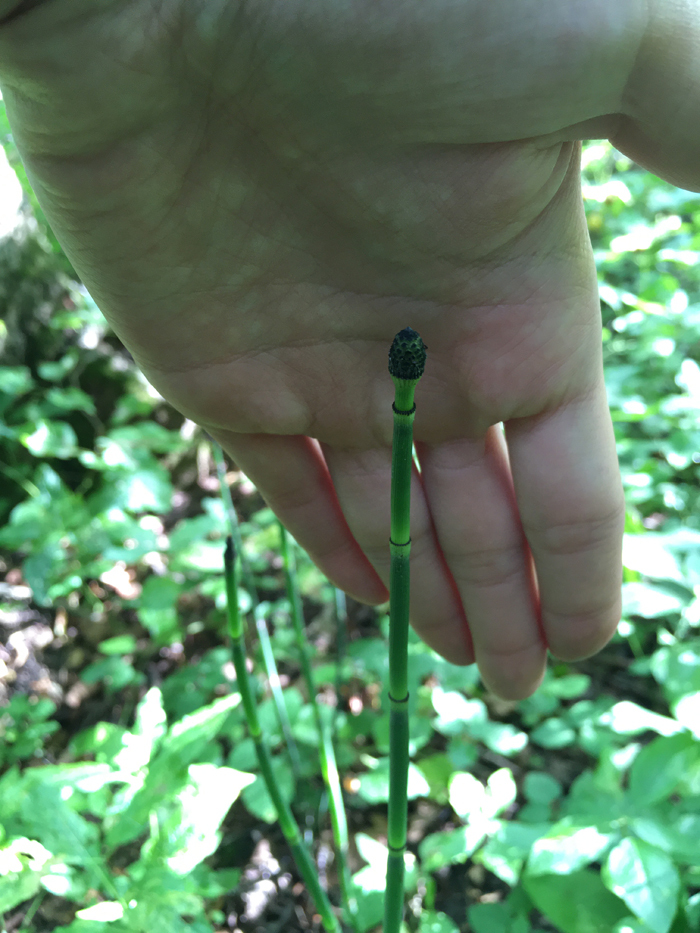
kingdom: Plantae
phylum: Tracheophyta
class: Polypodiopsida
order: Equisetales
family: Equisetaceae
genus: Equisetum
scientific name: Equisetum hyemale
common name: Rough horsetail
